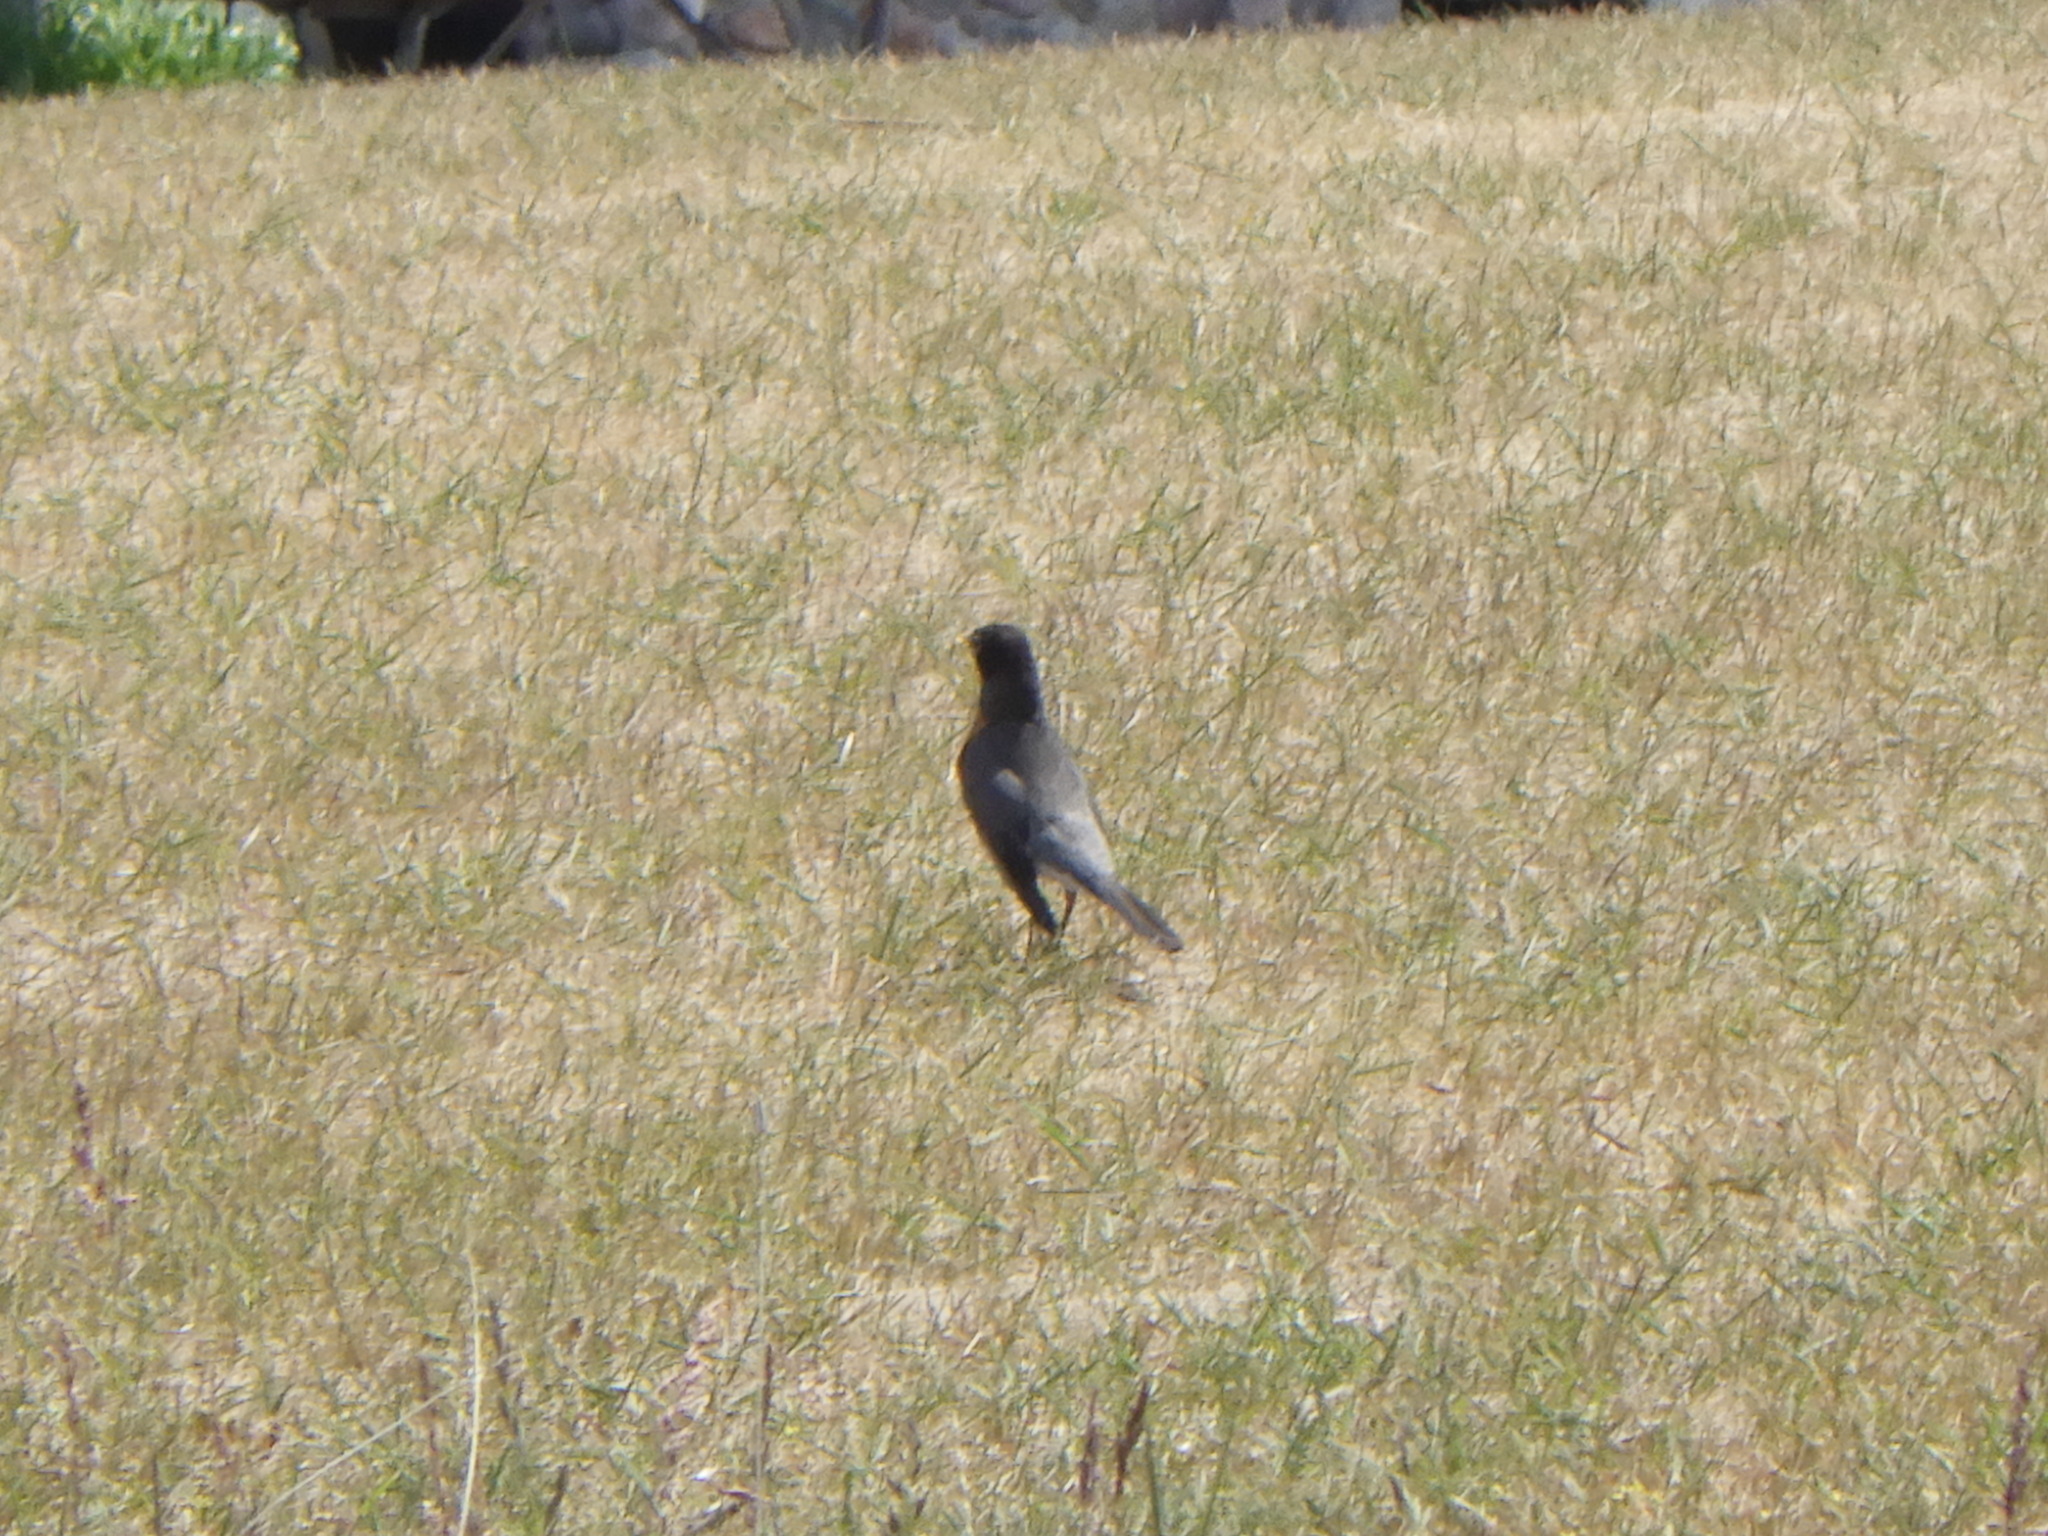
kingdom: Animalia
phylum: Chordata
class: Aves
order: Passeriformes
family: Turdidae
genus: Turdus
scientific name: Turdus migratorius
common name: American robin
